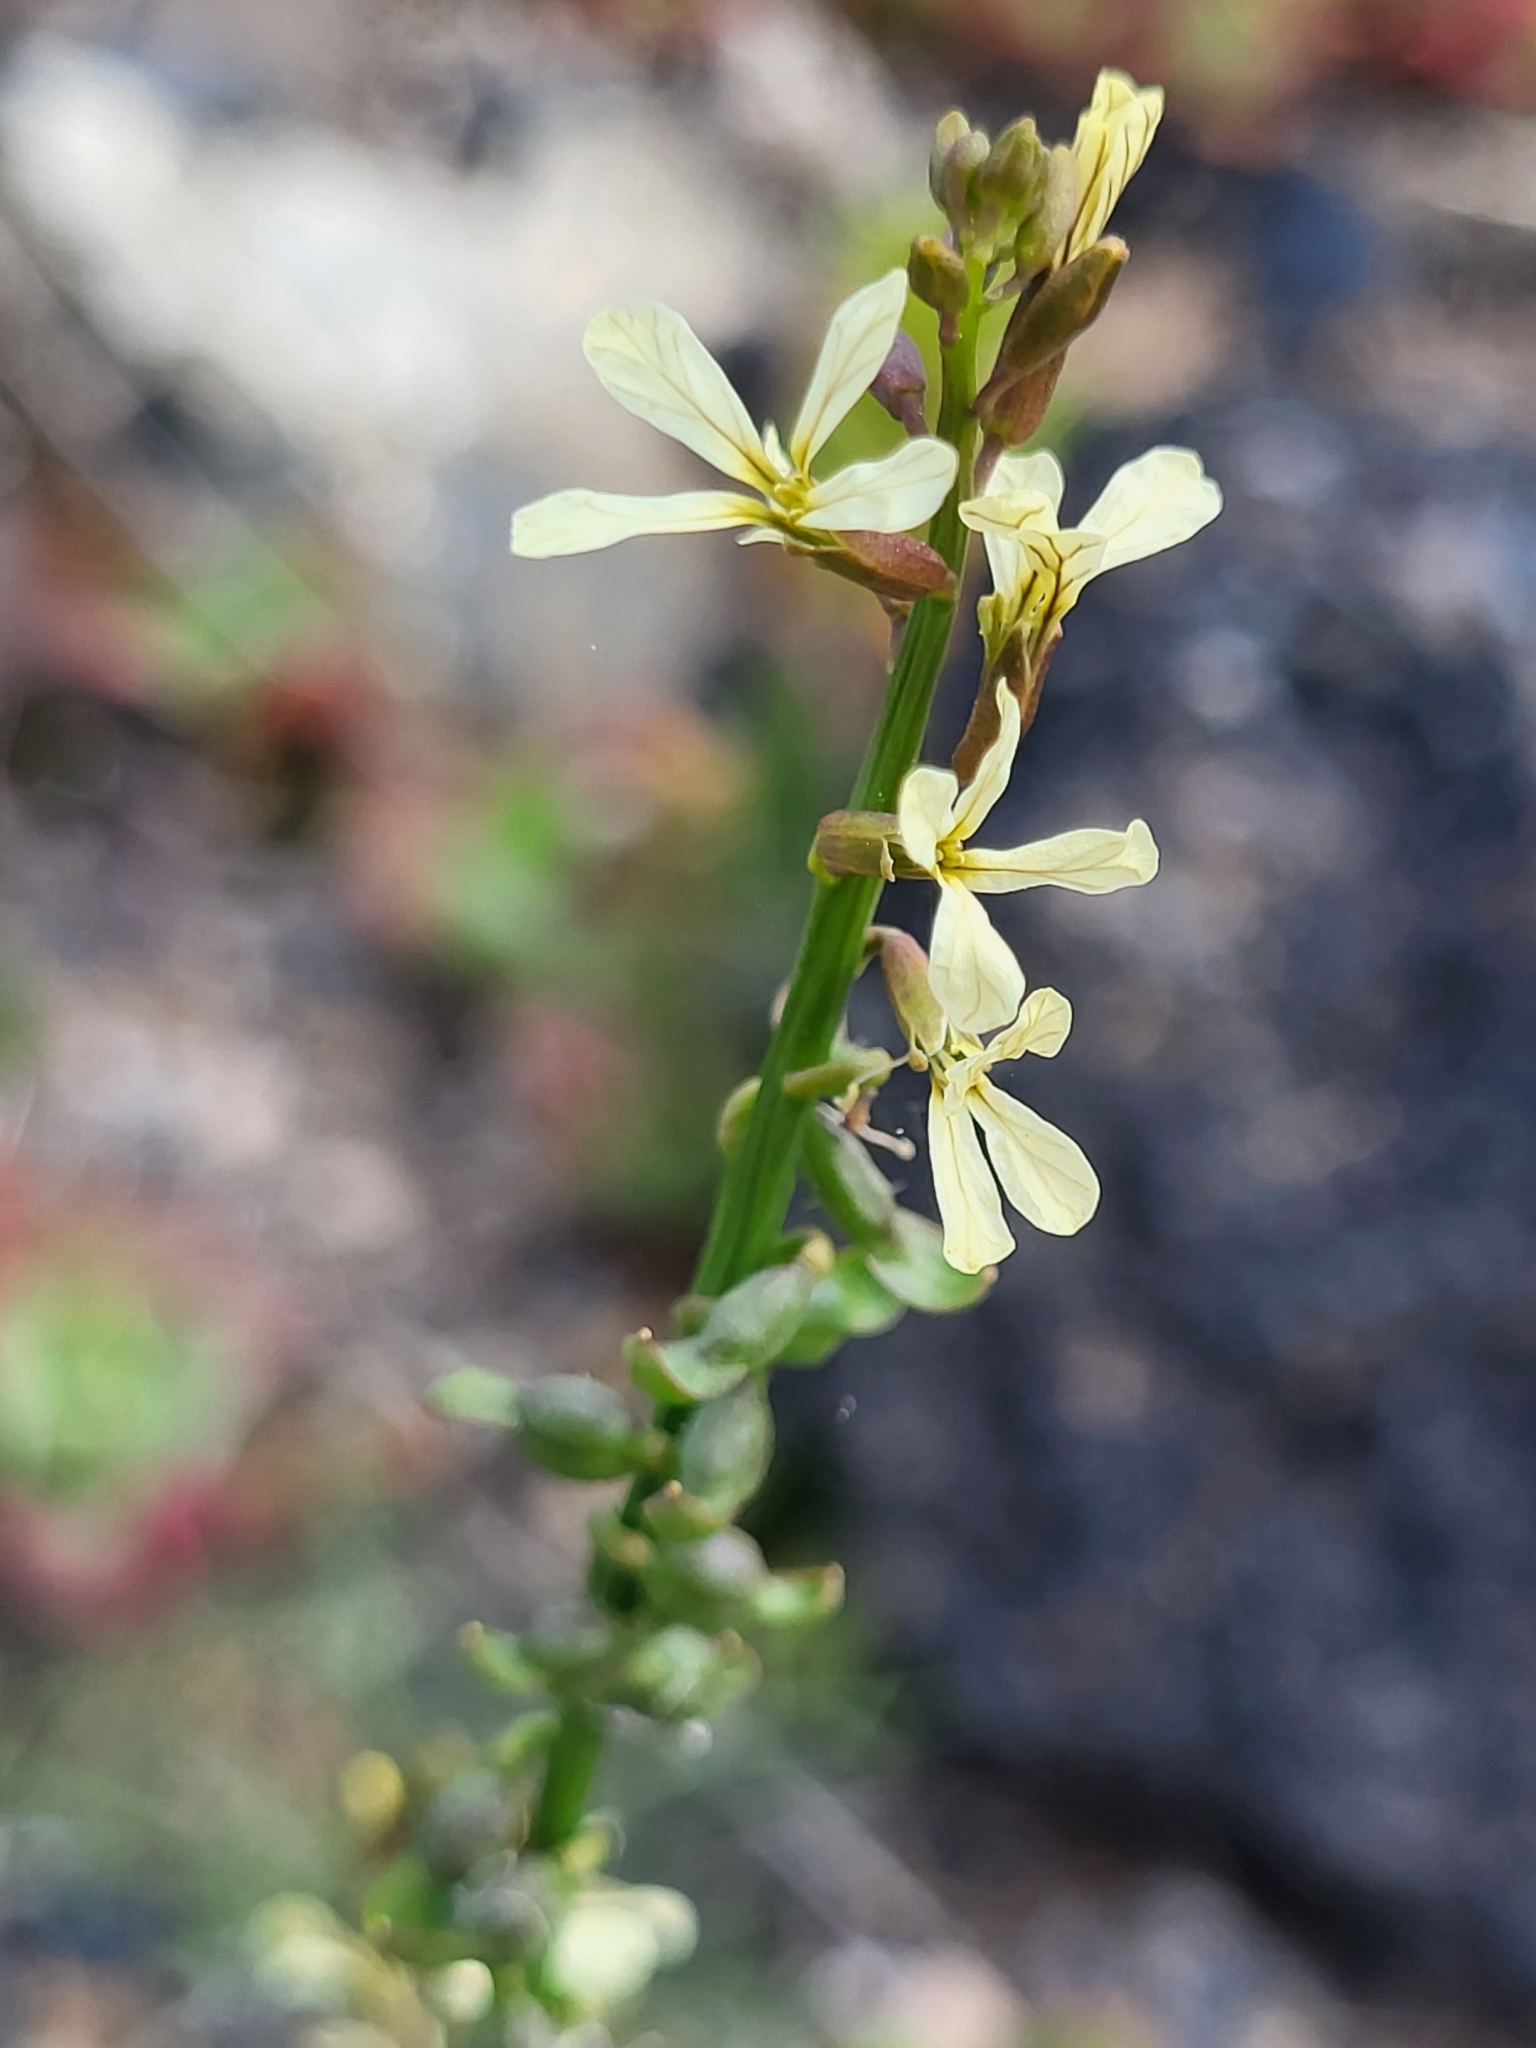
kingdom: Plantae
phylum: Tracheophyta
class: Magnoliopsida
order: Brassicales
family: Brassicaceae
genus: Carrichtera
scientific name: Carrichtera annua
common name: Cress rocket
